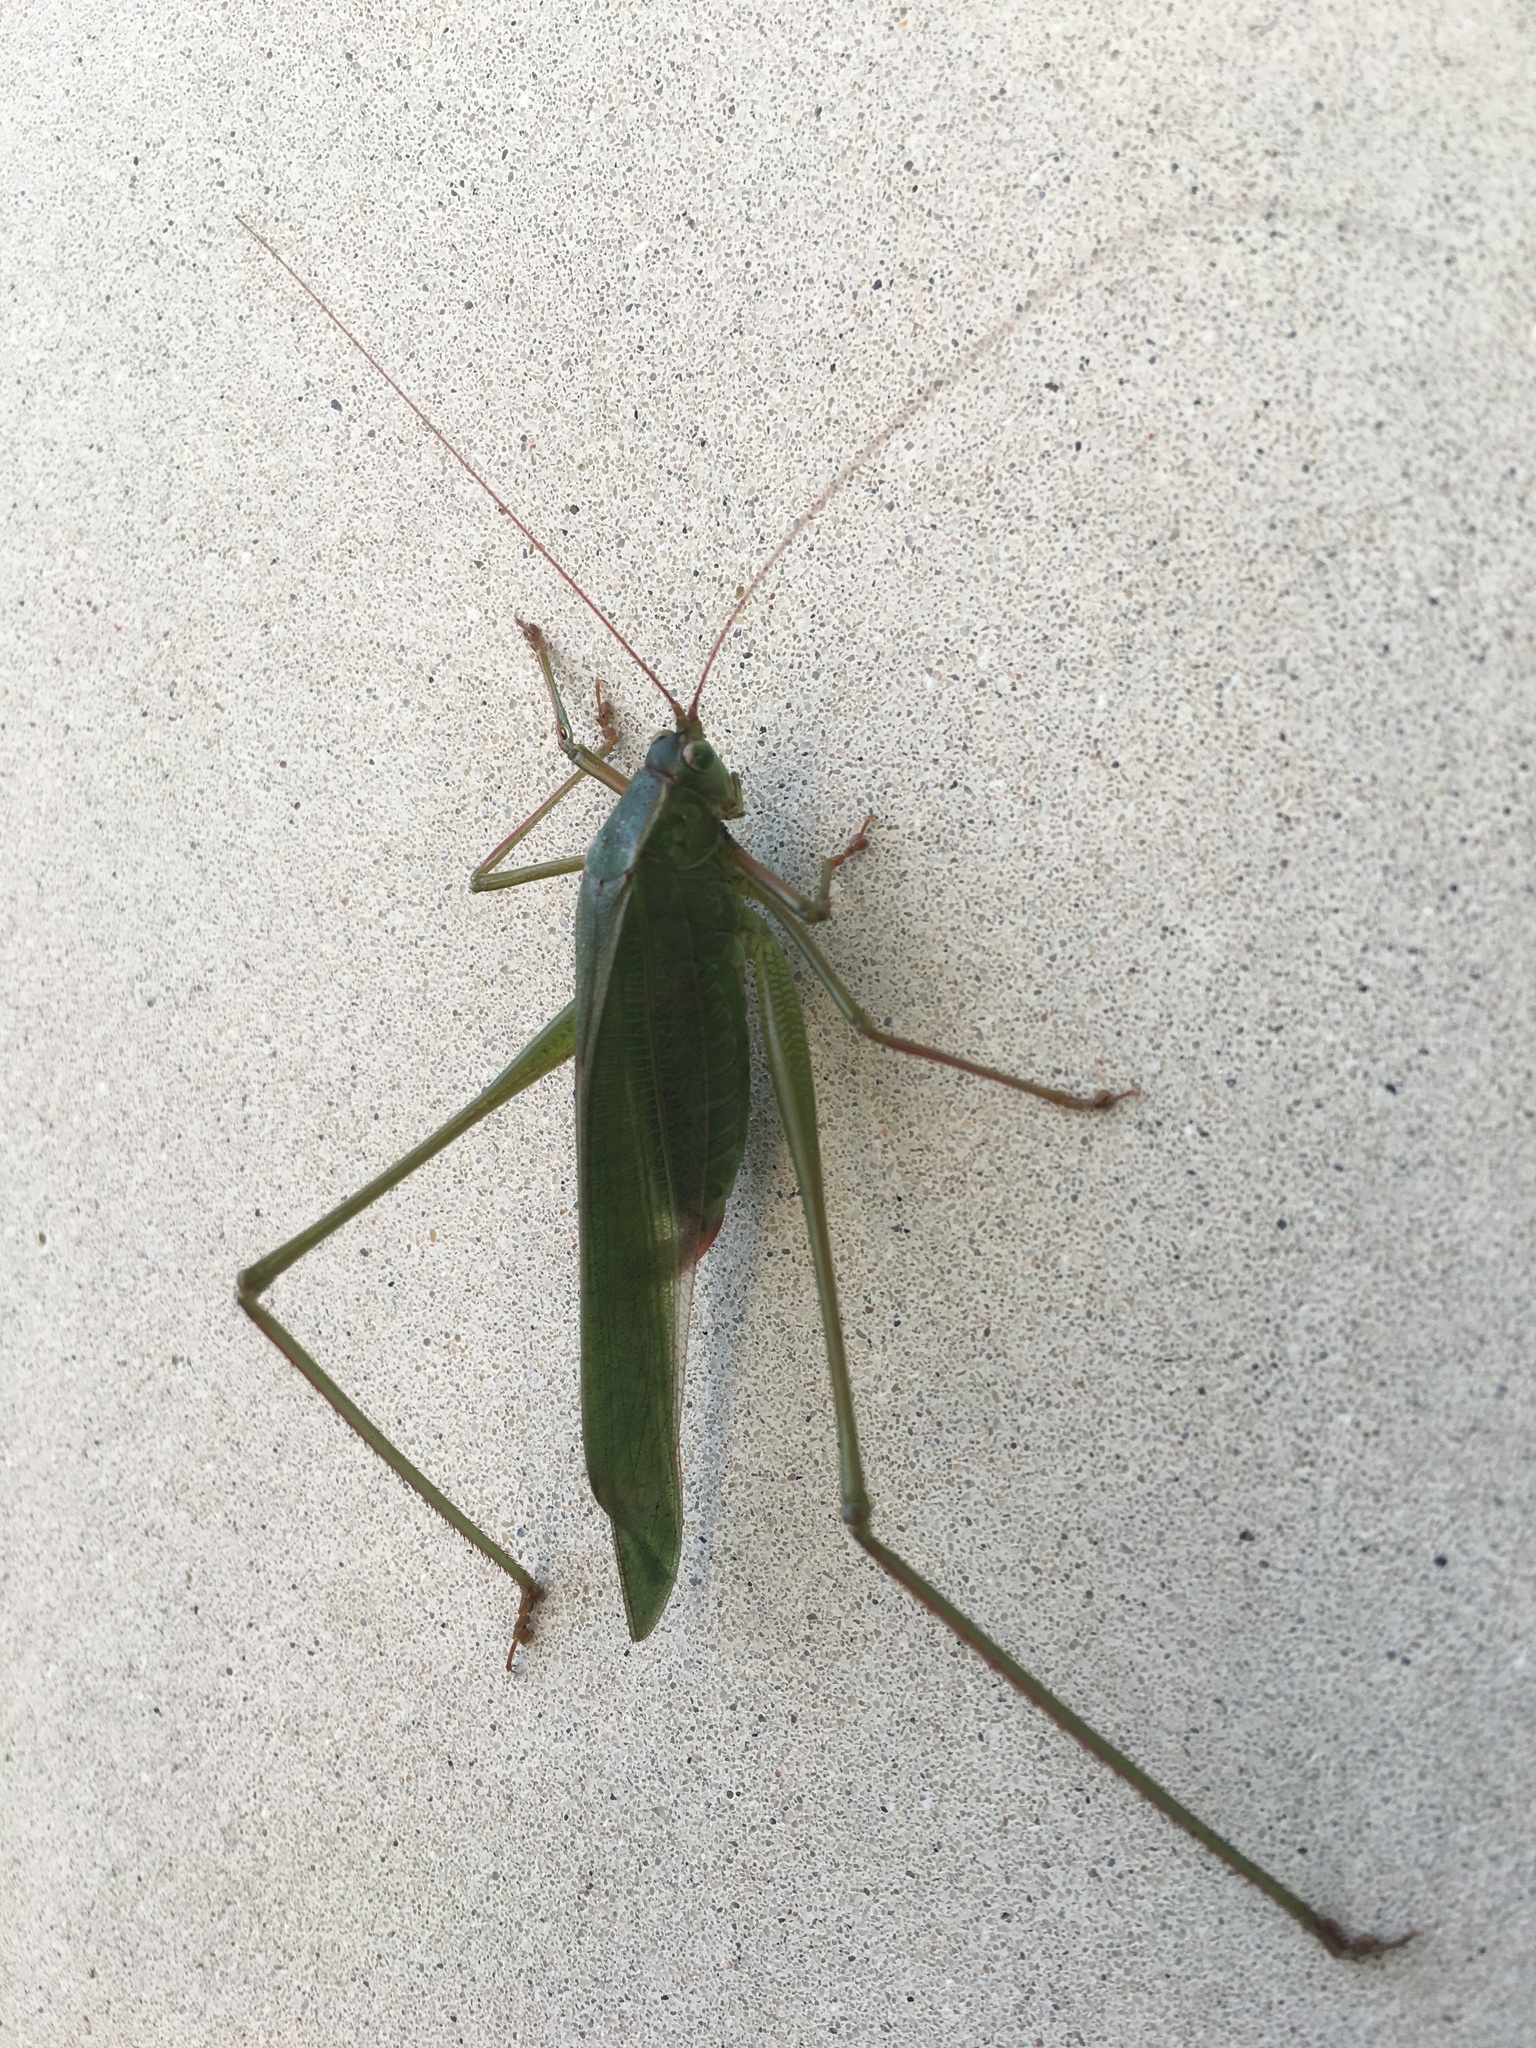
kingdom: Animalia
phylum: Arthropoda
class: Insecta
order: Orthoptera
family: Tettigoniidae
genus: Scudderia
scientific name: Scudderia mexicana
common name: Mexican bush katydid
